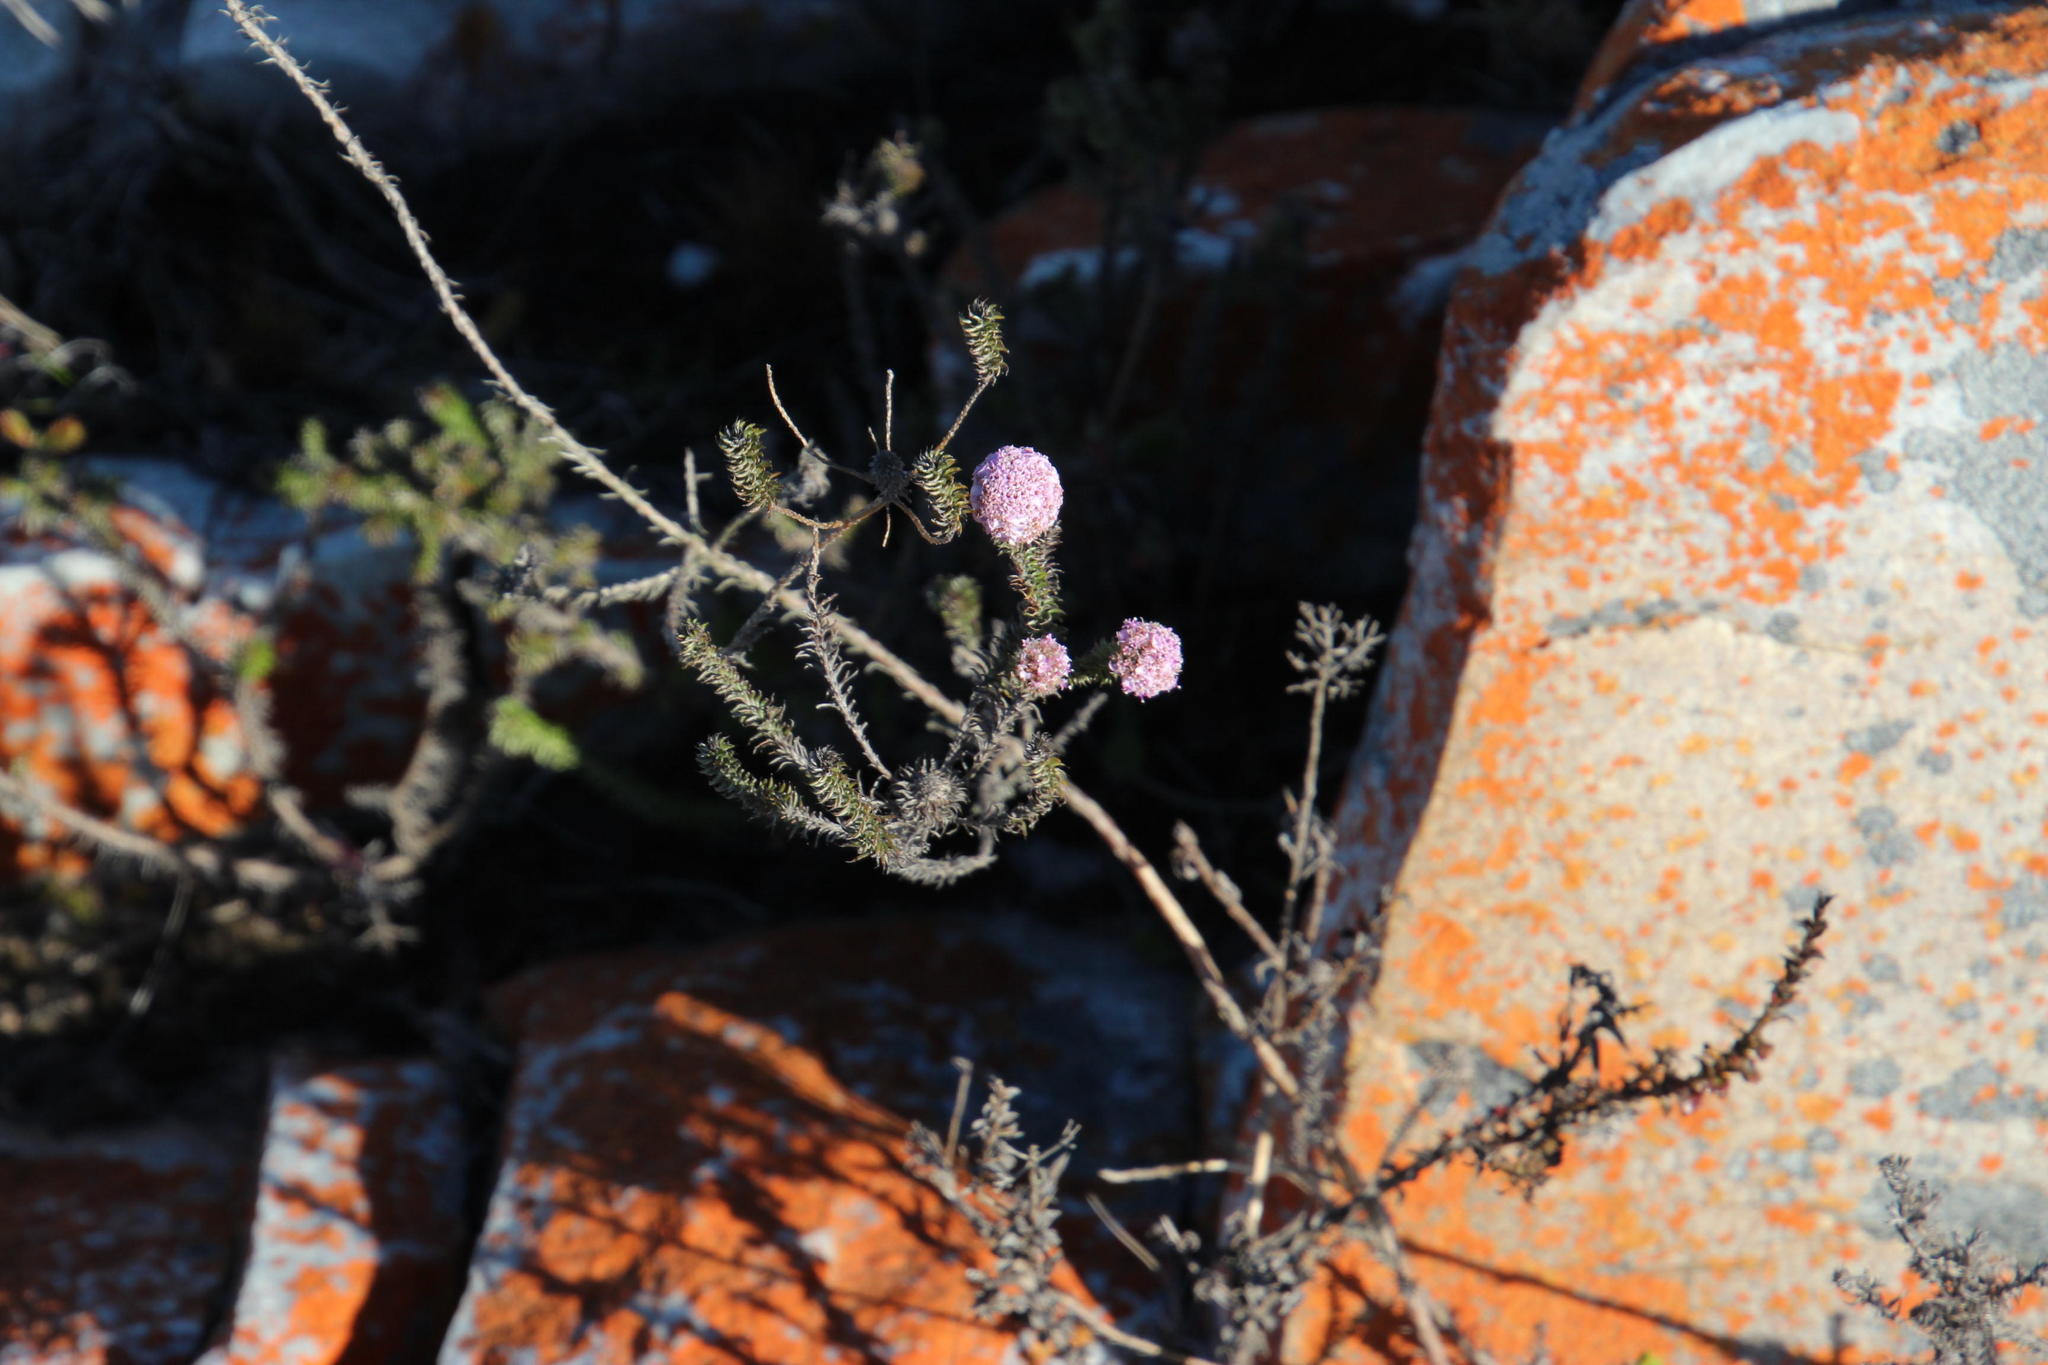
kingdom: Plantae
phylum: Tracheophyta
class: Magnoliopsida
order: Asterales
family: Asteraceae
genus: Disparago
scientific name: Disparago tortilis
